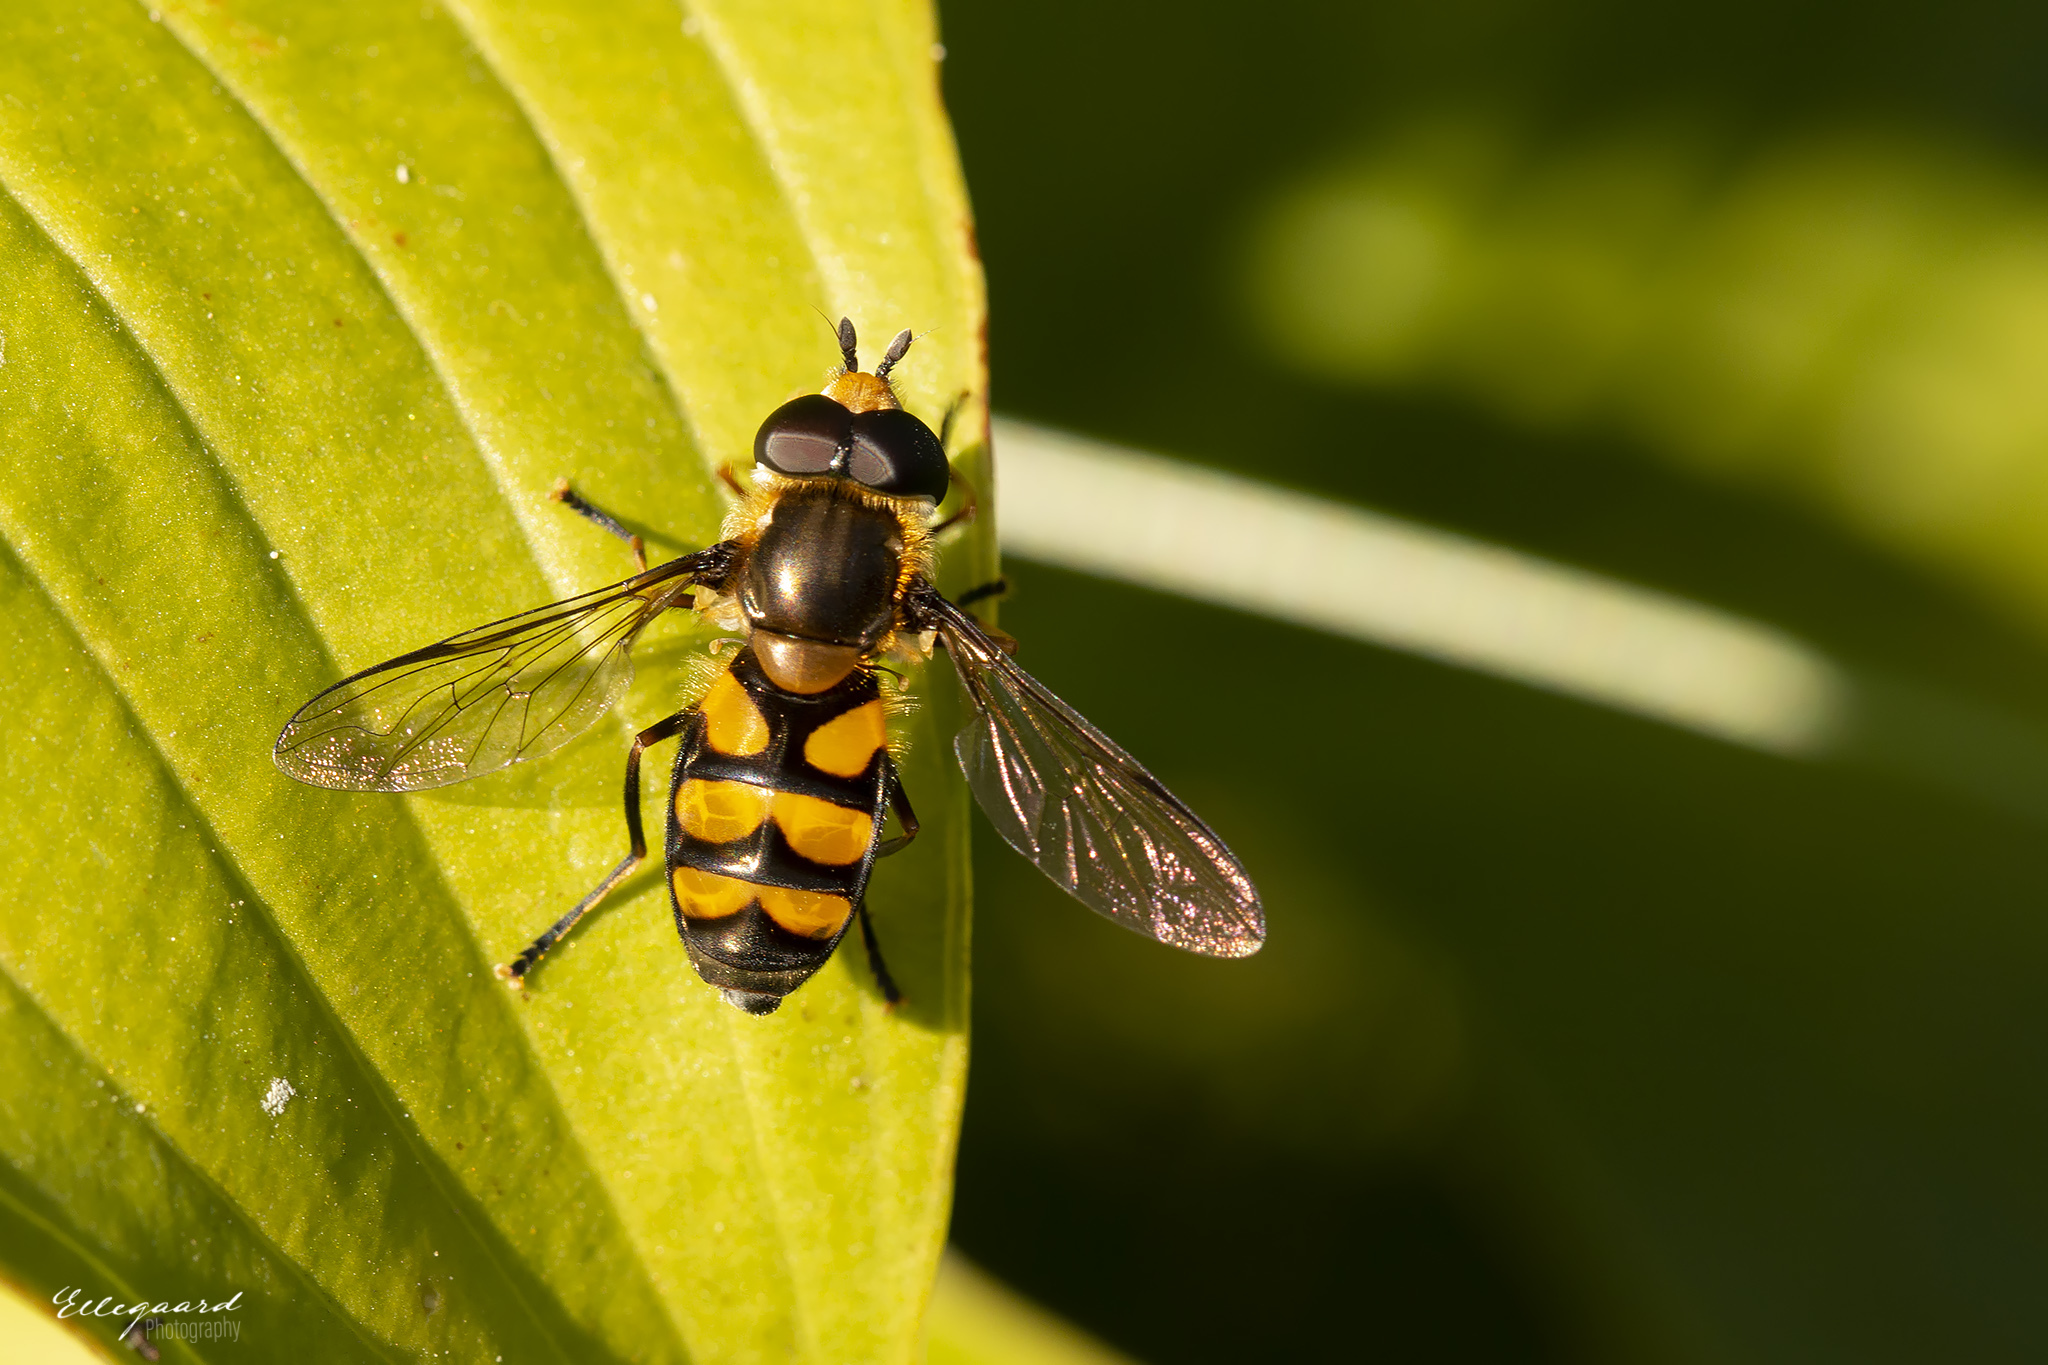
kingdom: Animalia
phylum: Arthropoda
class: Insecta
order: Diptera
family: Syrphidae
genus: Didea
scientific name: Didea fasciata
